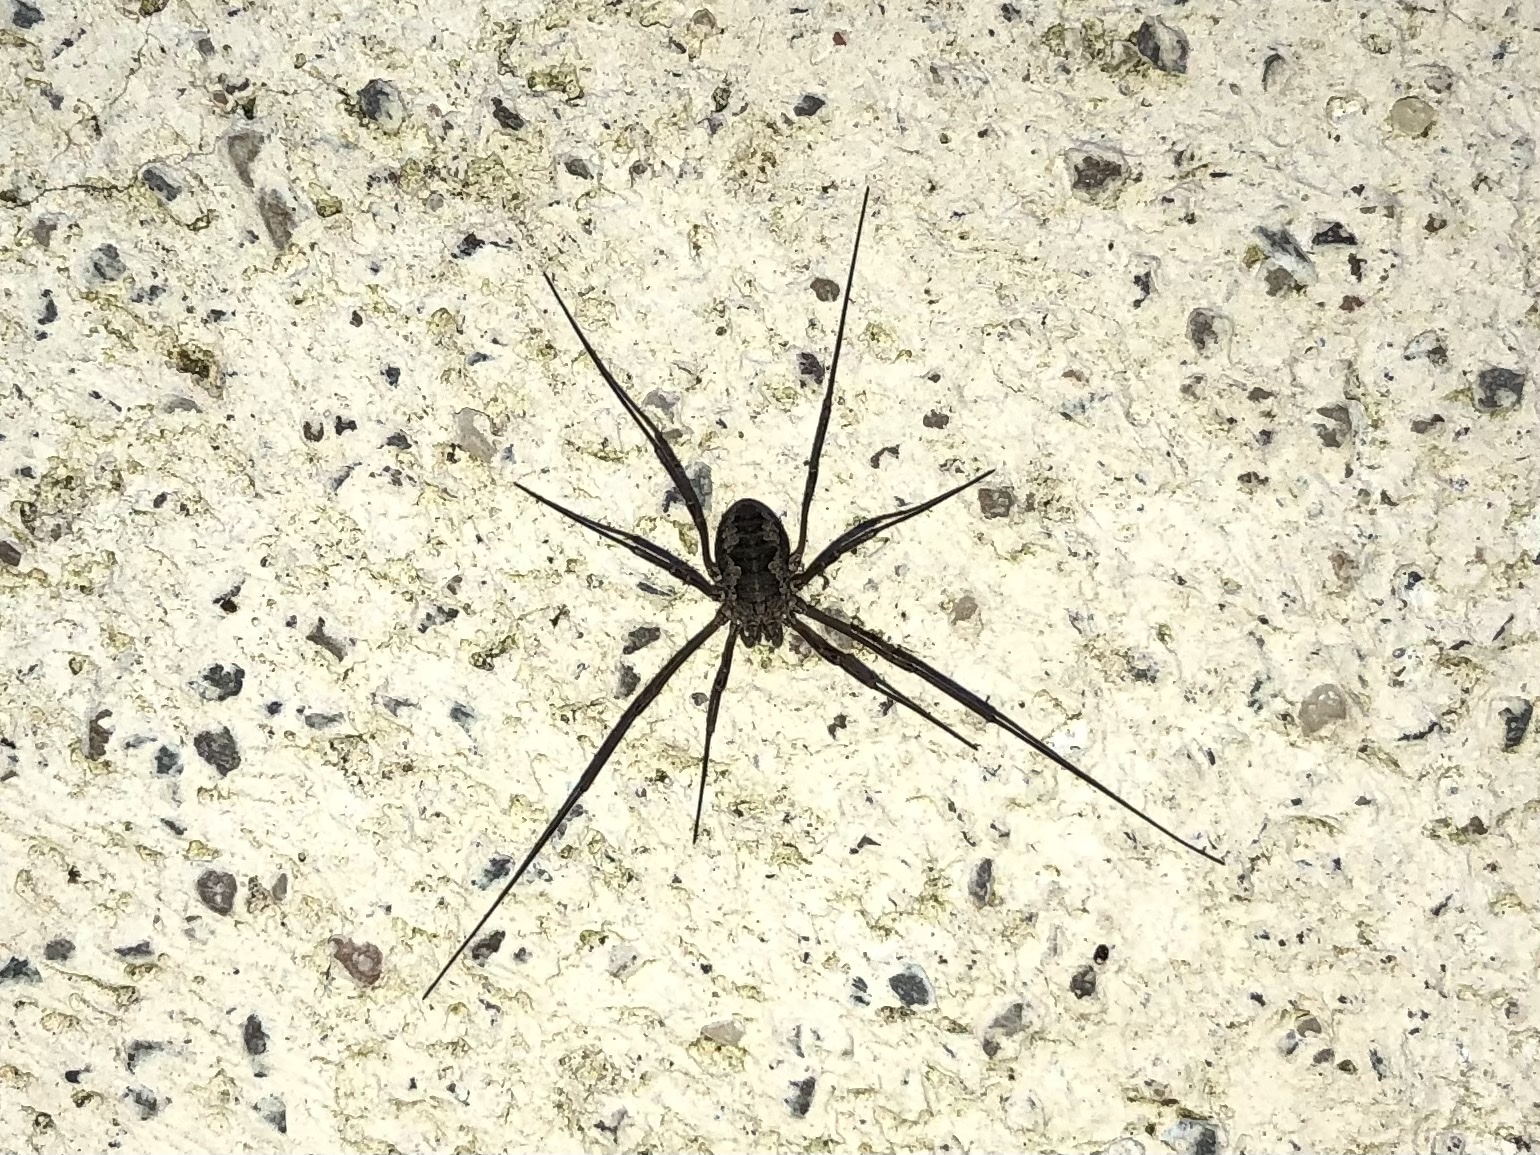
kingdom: Animalia
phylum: Arthropoda
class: Arachnida
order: Opiliones
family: Phalangiidae
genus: Phalangium
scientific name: Phalangium opilio
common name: Daddy longleg
